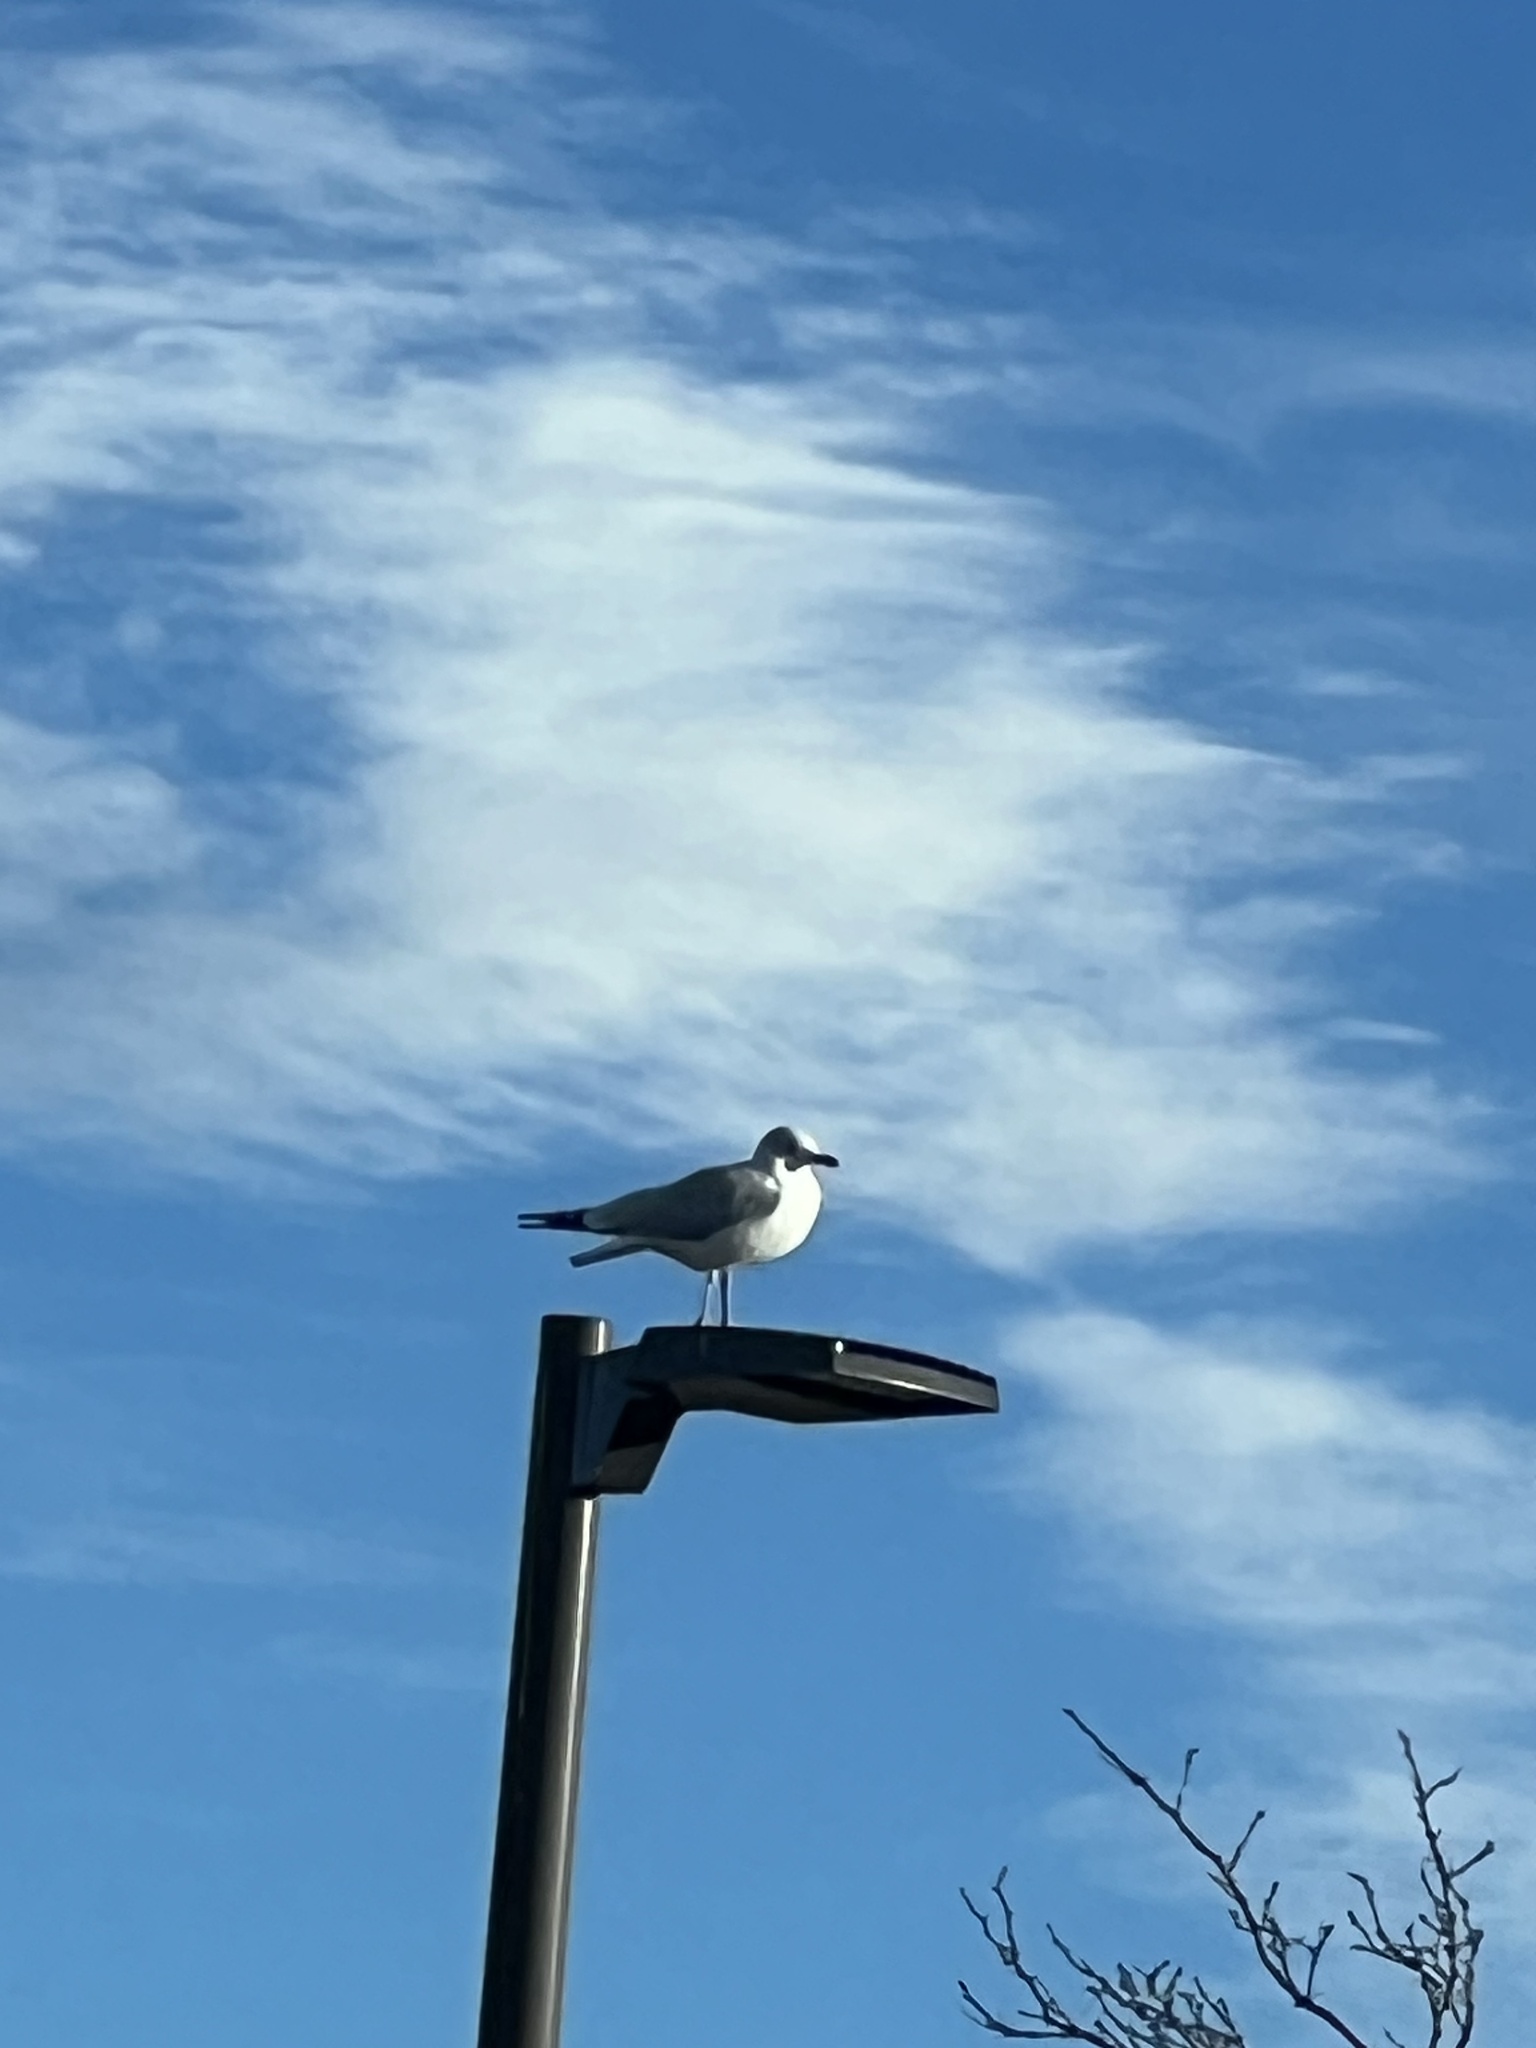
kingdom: Animalia
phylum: Chordata
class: Aves
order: Charadriiformes
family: Laridae
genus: Larus
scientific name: Larus delawarensis
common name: Ring-billed gull
